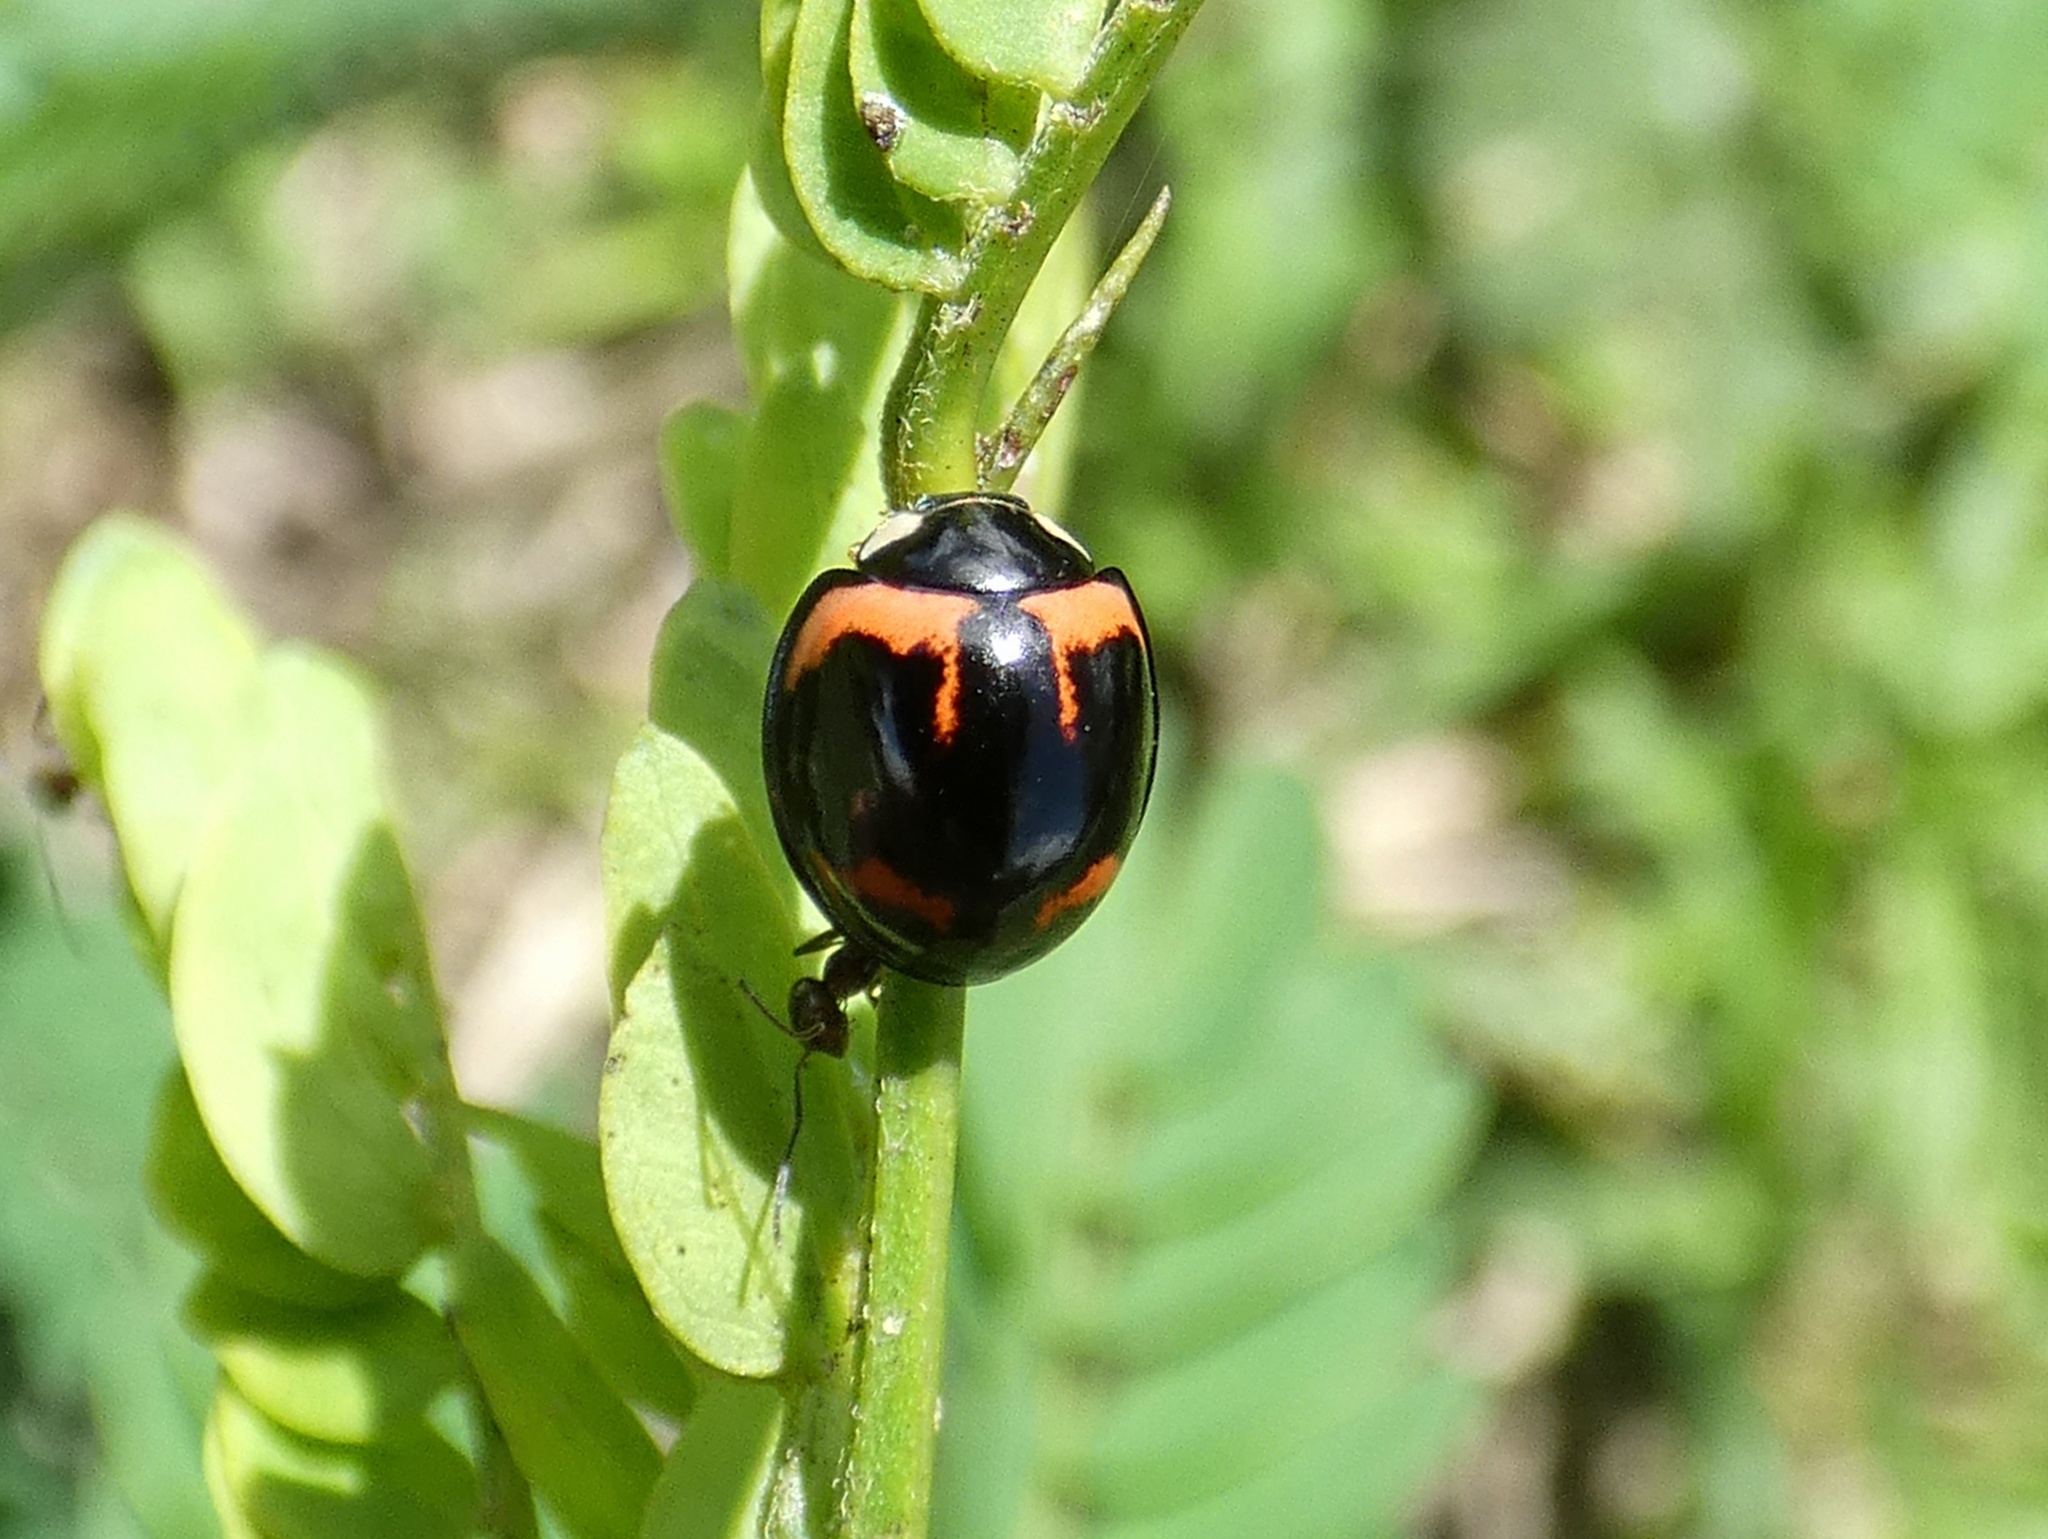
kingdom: Animalia
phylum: Arthropoda
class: Insecta
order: Coleoptera
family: Coccinellidae
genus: Cheilomenes
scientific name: Cheilomenes sexmaculata
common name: Ladybird beetle
